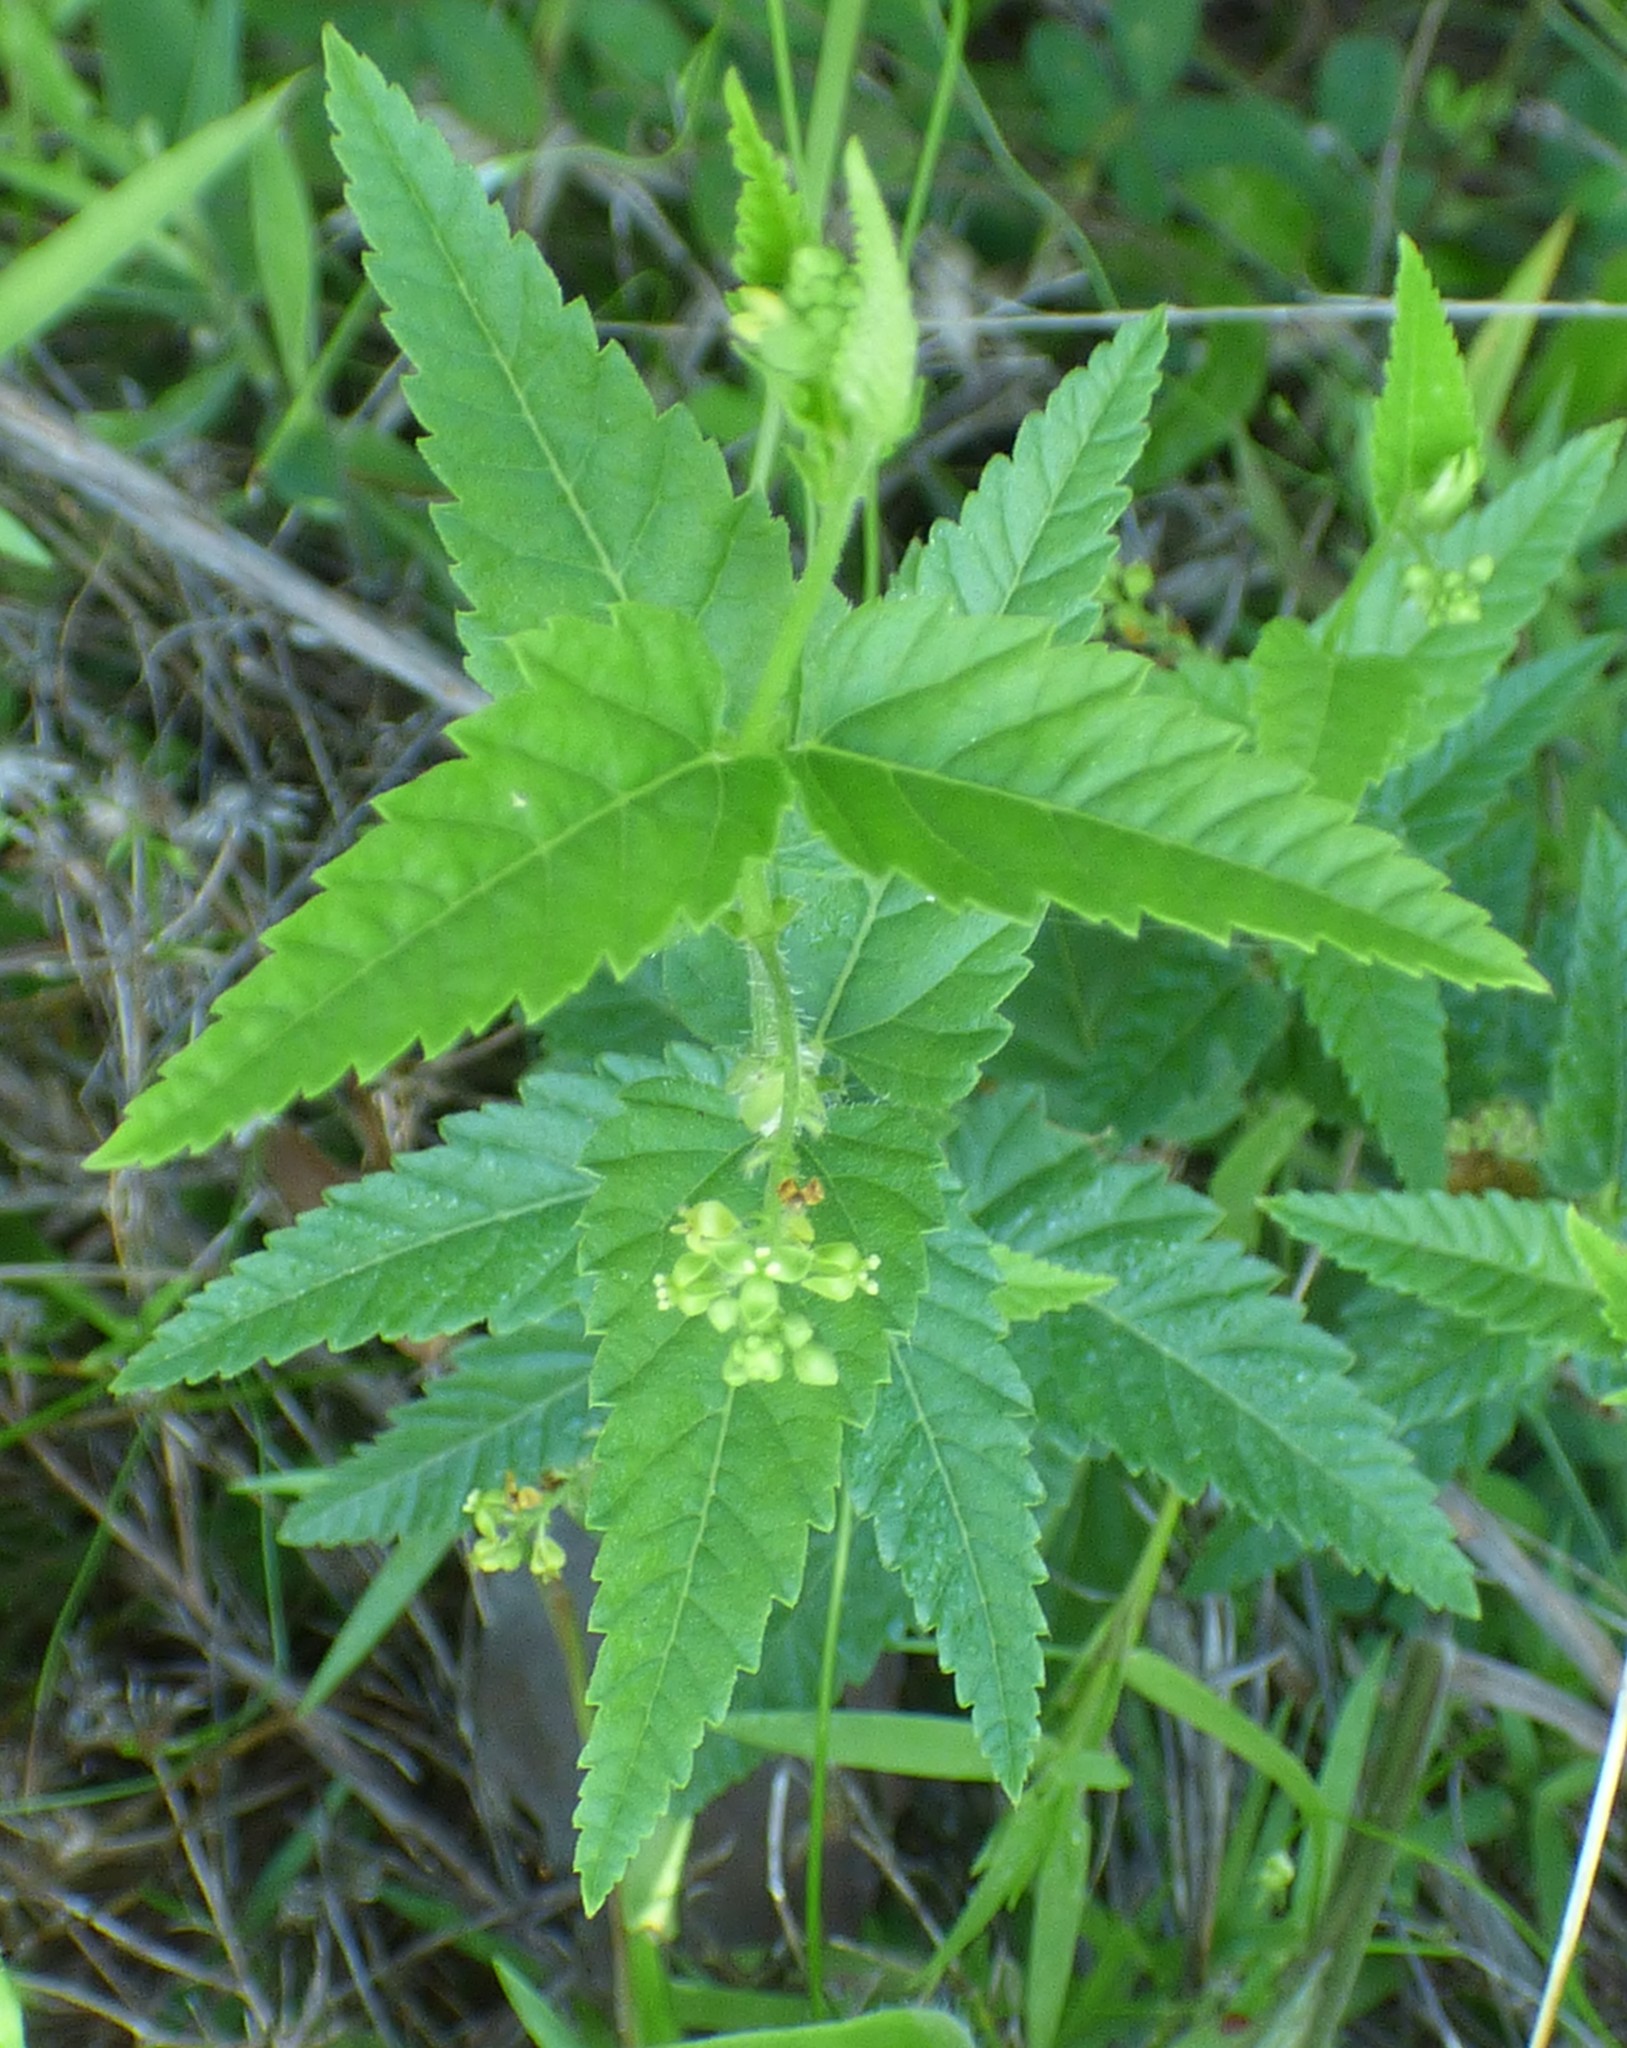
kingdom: Plantae
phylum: Tracheophyta
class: Magnoliopsida
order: Malpighiales
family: Euphorbiaceae
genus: Tragia
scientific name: Tragia urticifolia
